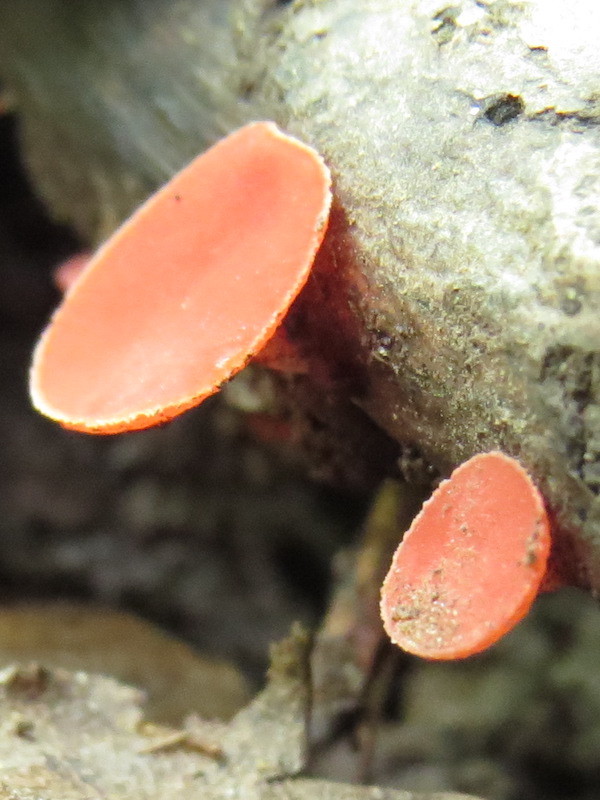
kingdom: Fungi
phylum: Ascomycota
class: Pezizomycetes
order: Pezizales
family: Sarcoscyphaceae
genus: Sarcoscypha
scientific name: Sarcoscypha occidentalis
